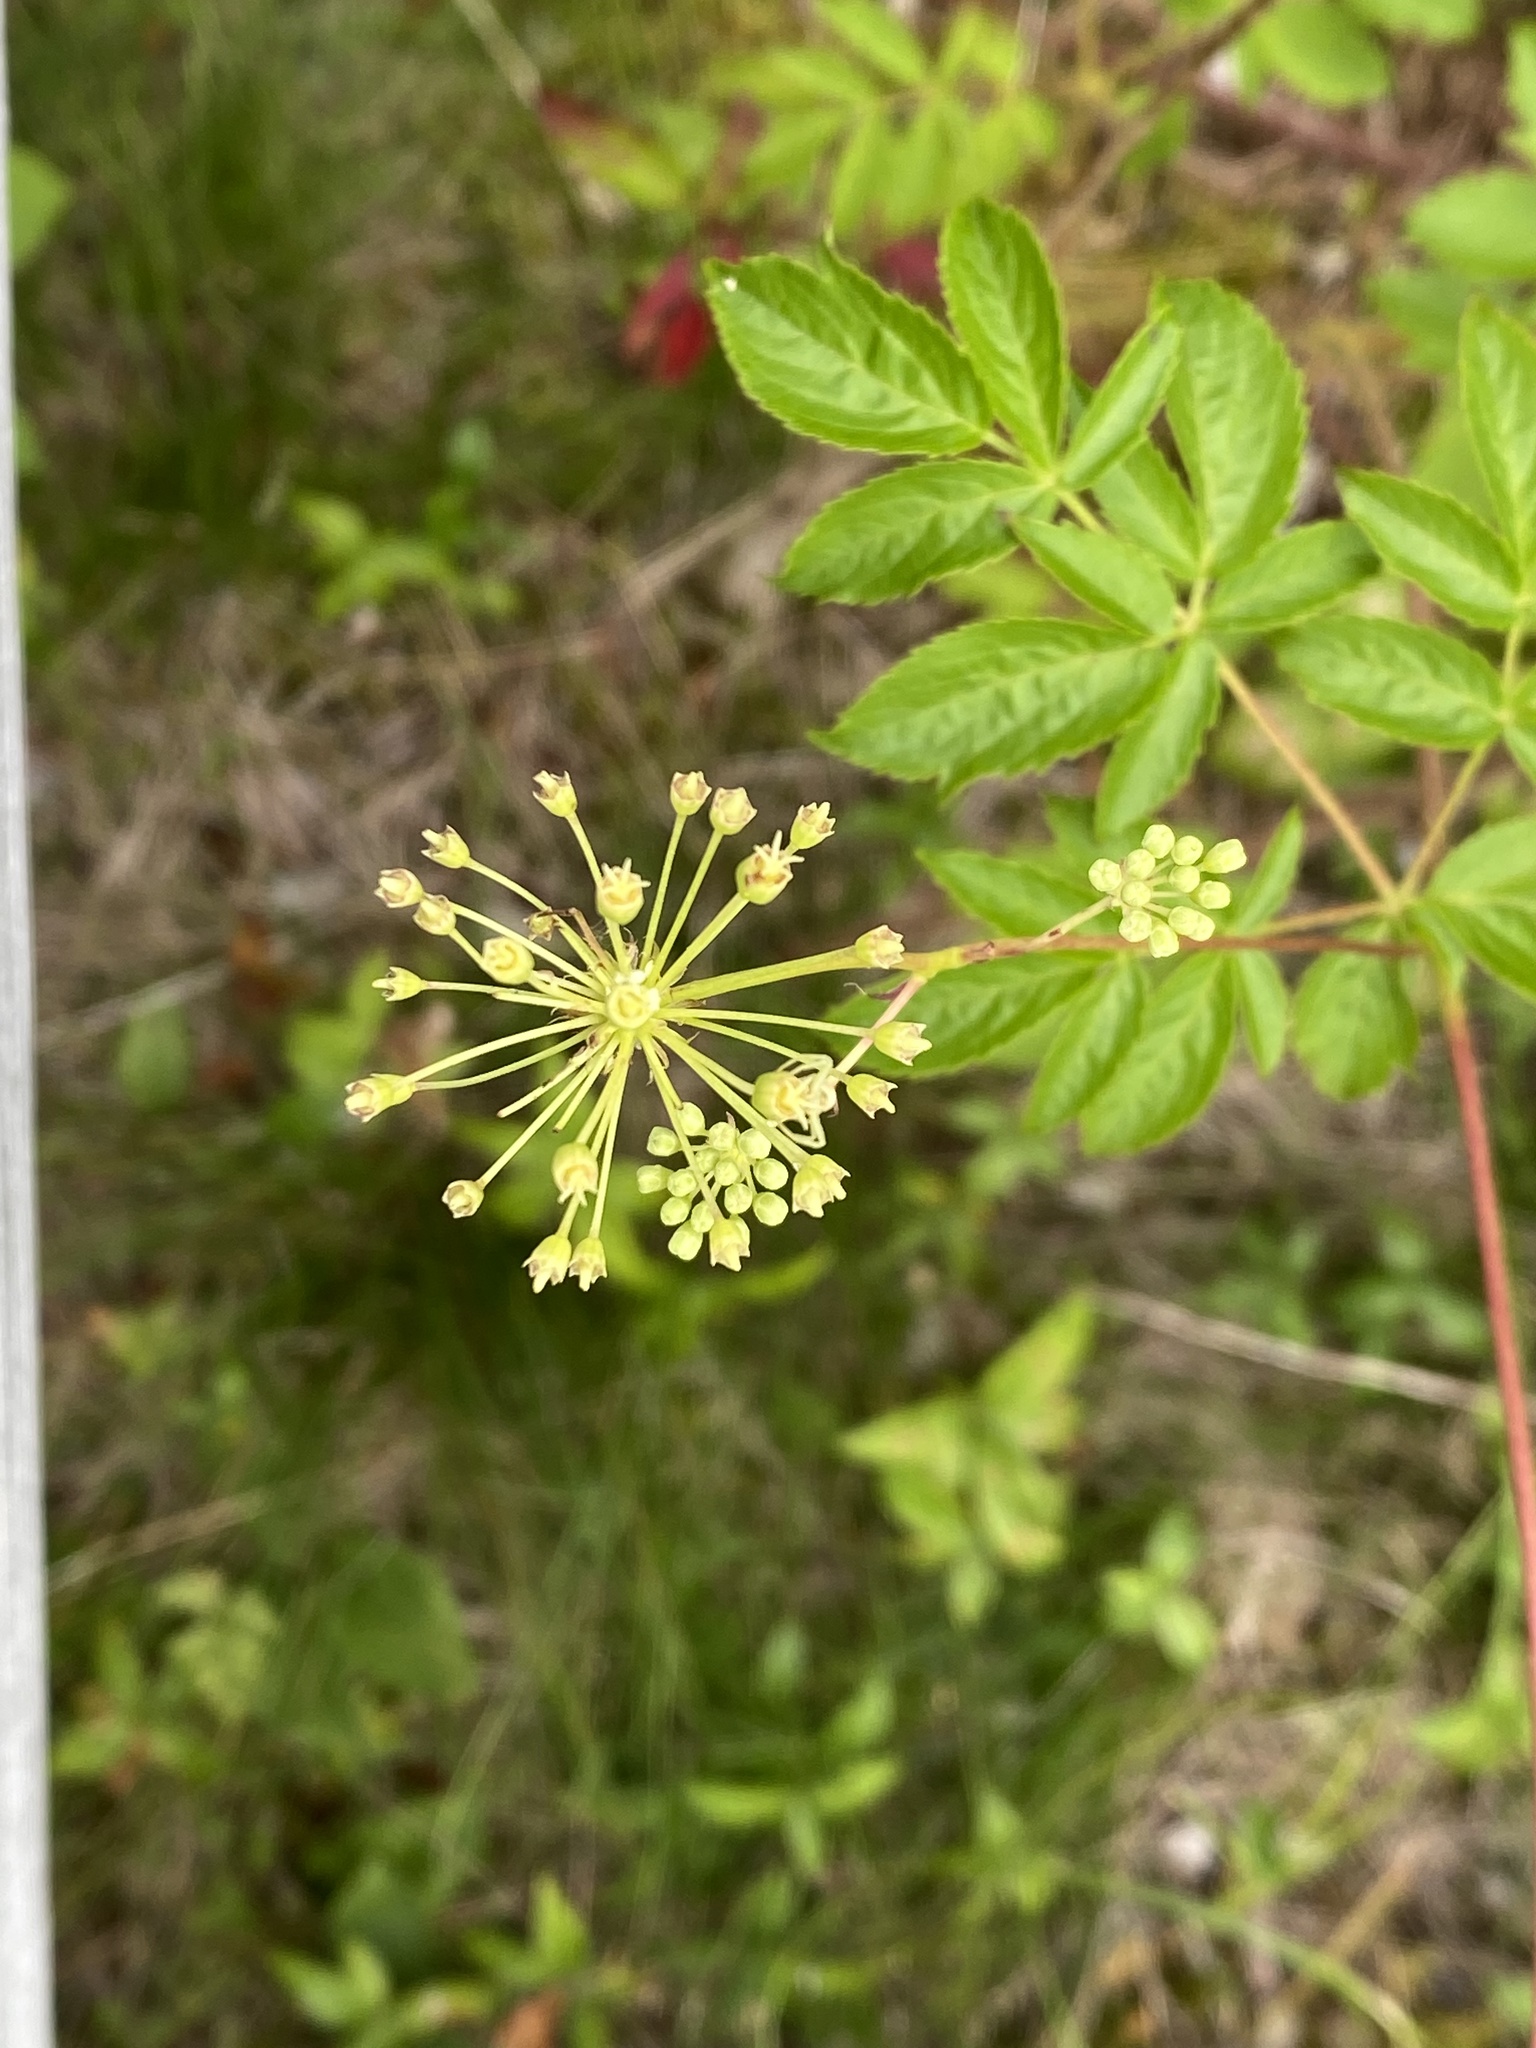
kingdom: Plantae
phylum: Tracheophyta
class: Magnoliopsida
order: Apiales
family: Araliaceae
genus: Aralia
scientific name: Aralia hispida
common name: Bristly sarsaparilla
